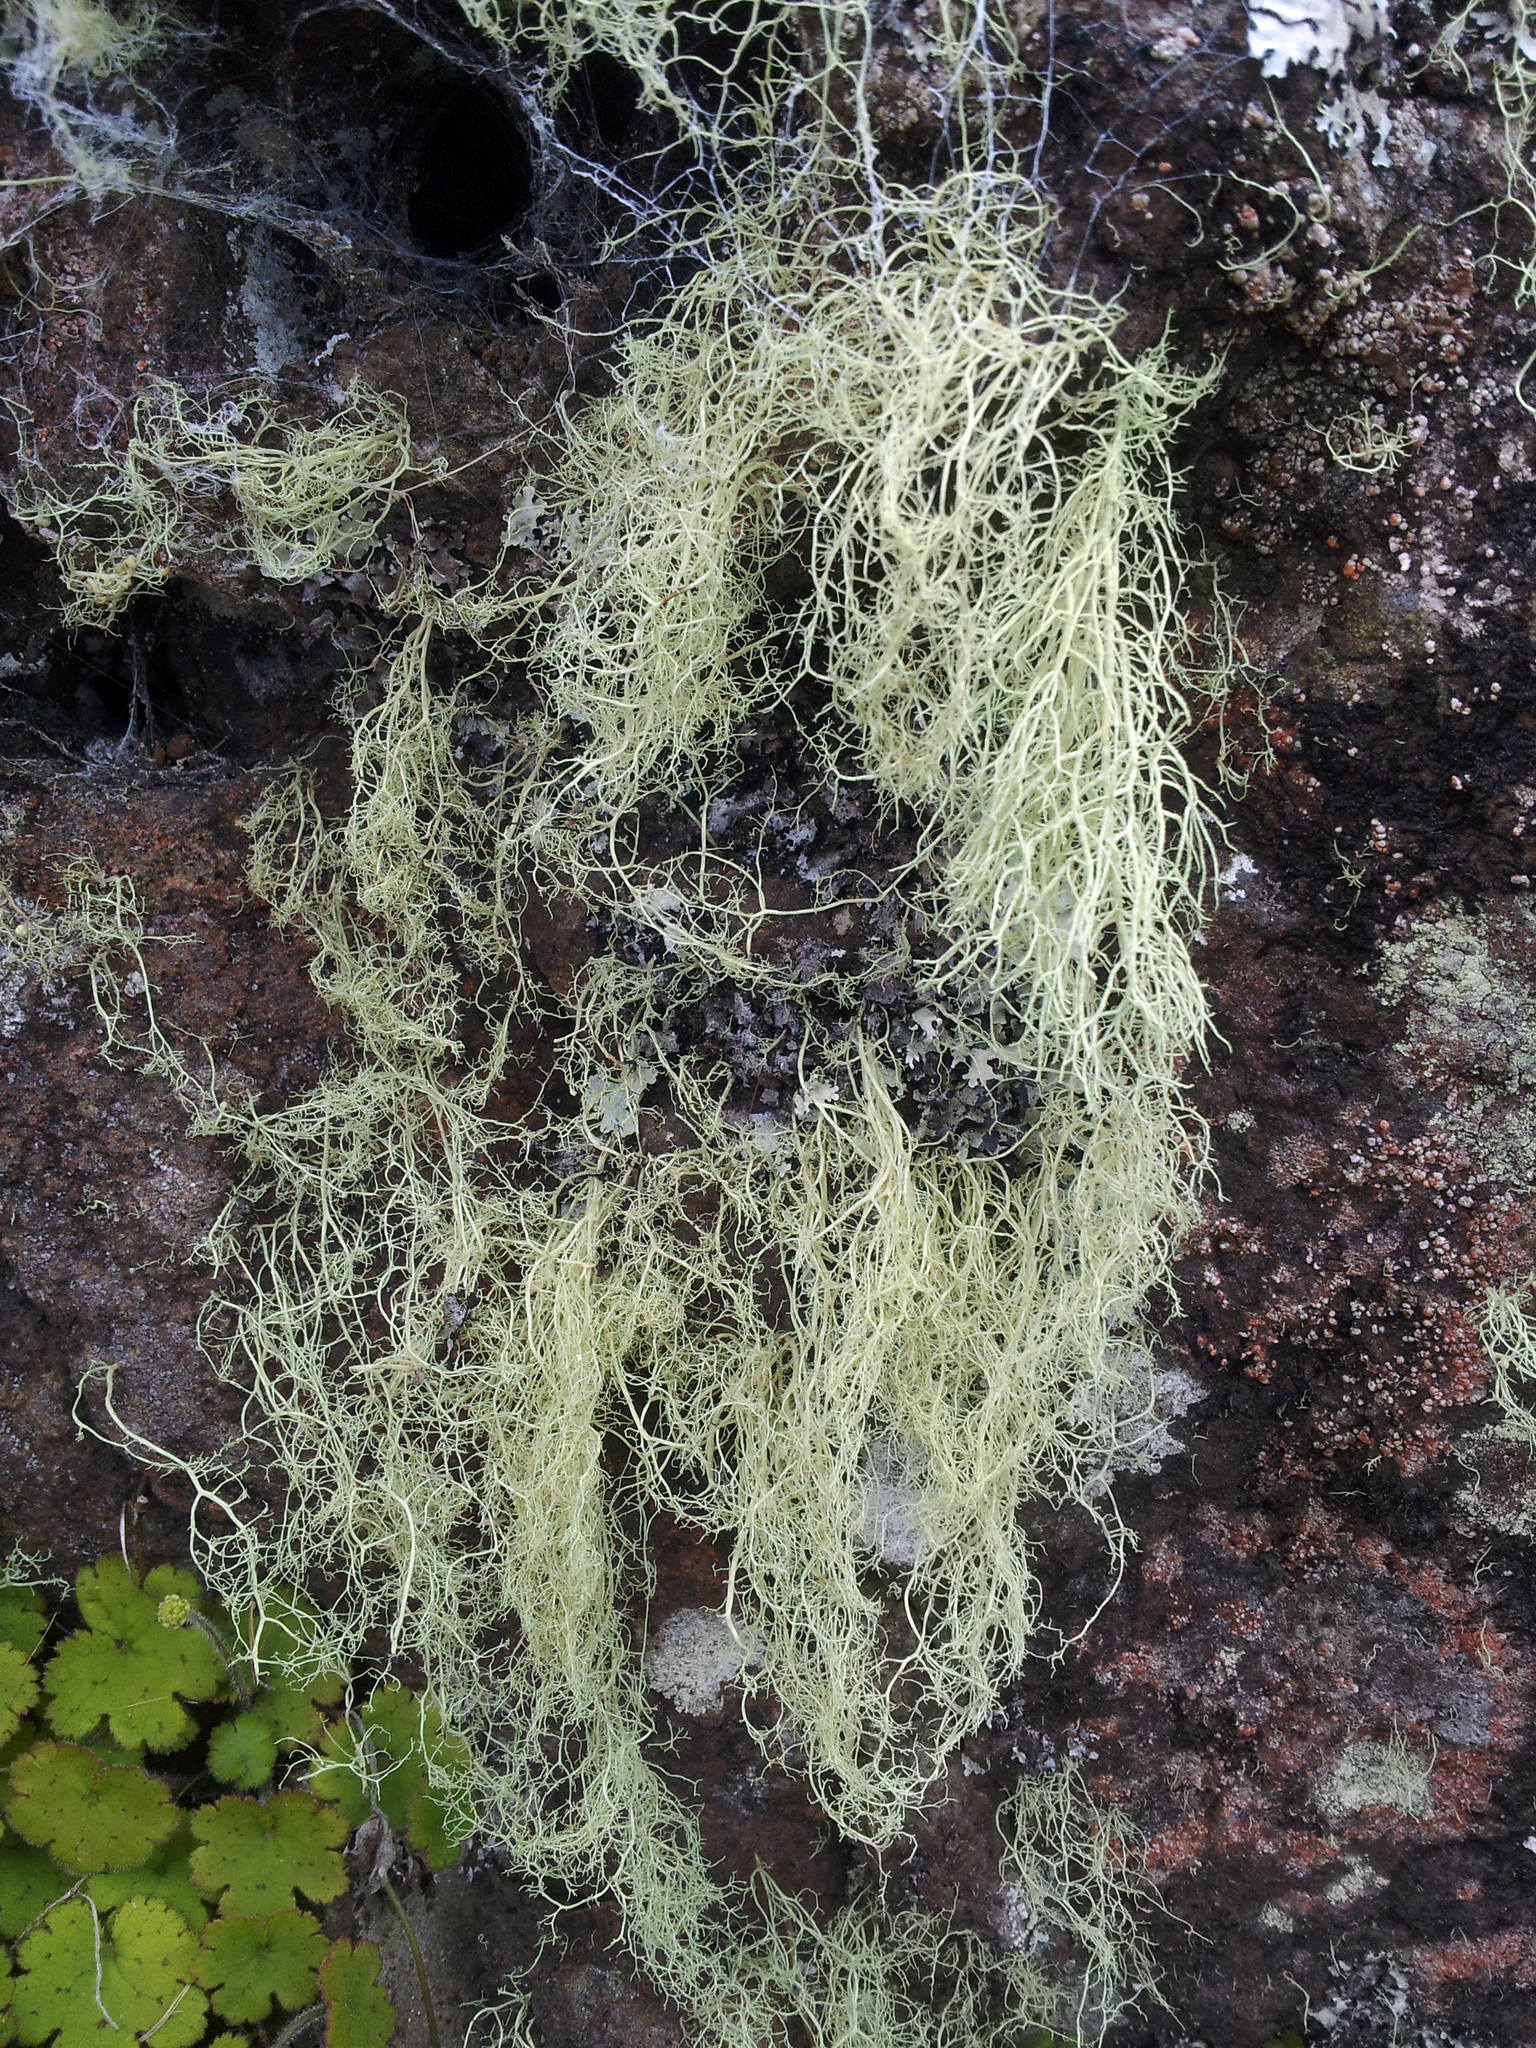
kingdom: Fungi
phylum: Ascomycota
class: Lecanoromycetes
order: Lecanorales
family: Ramalinaceae
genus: Ramalina
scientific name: Ramalina australiensis
